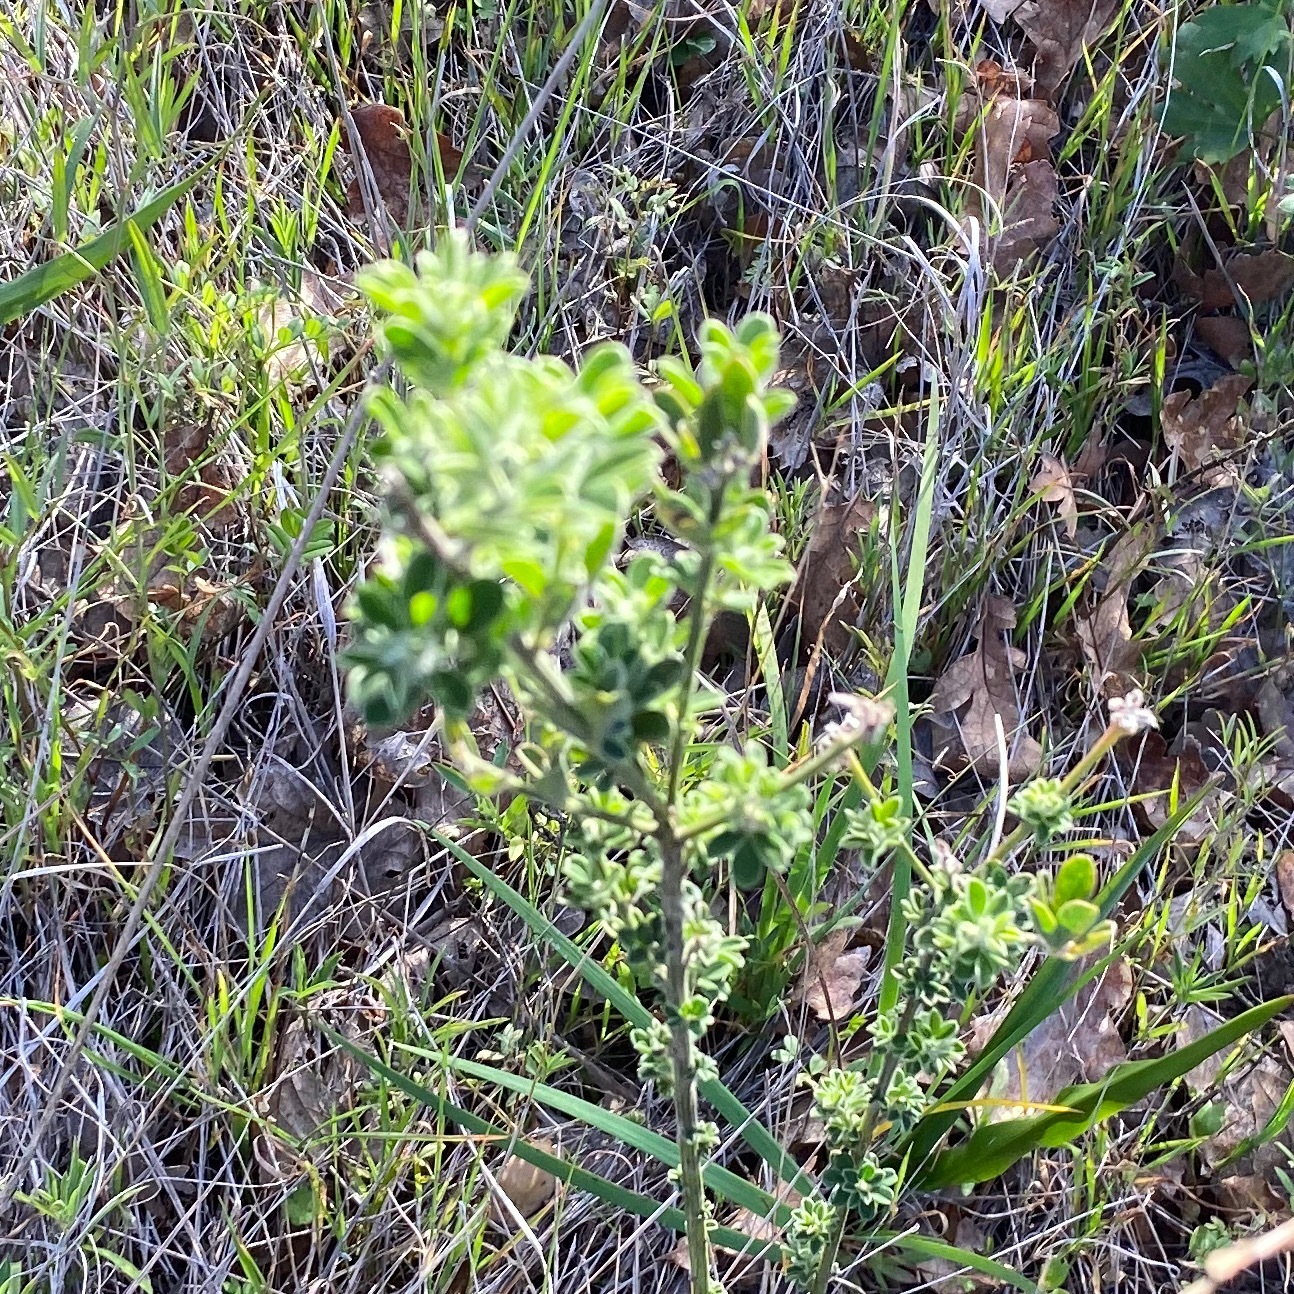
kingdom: Plantae
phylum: Tracheophyta
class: Magnoliopsida
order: Fabales
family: Fabaceae
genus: Genista
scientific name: Genista monspessulana
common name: Montpellier broom
